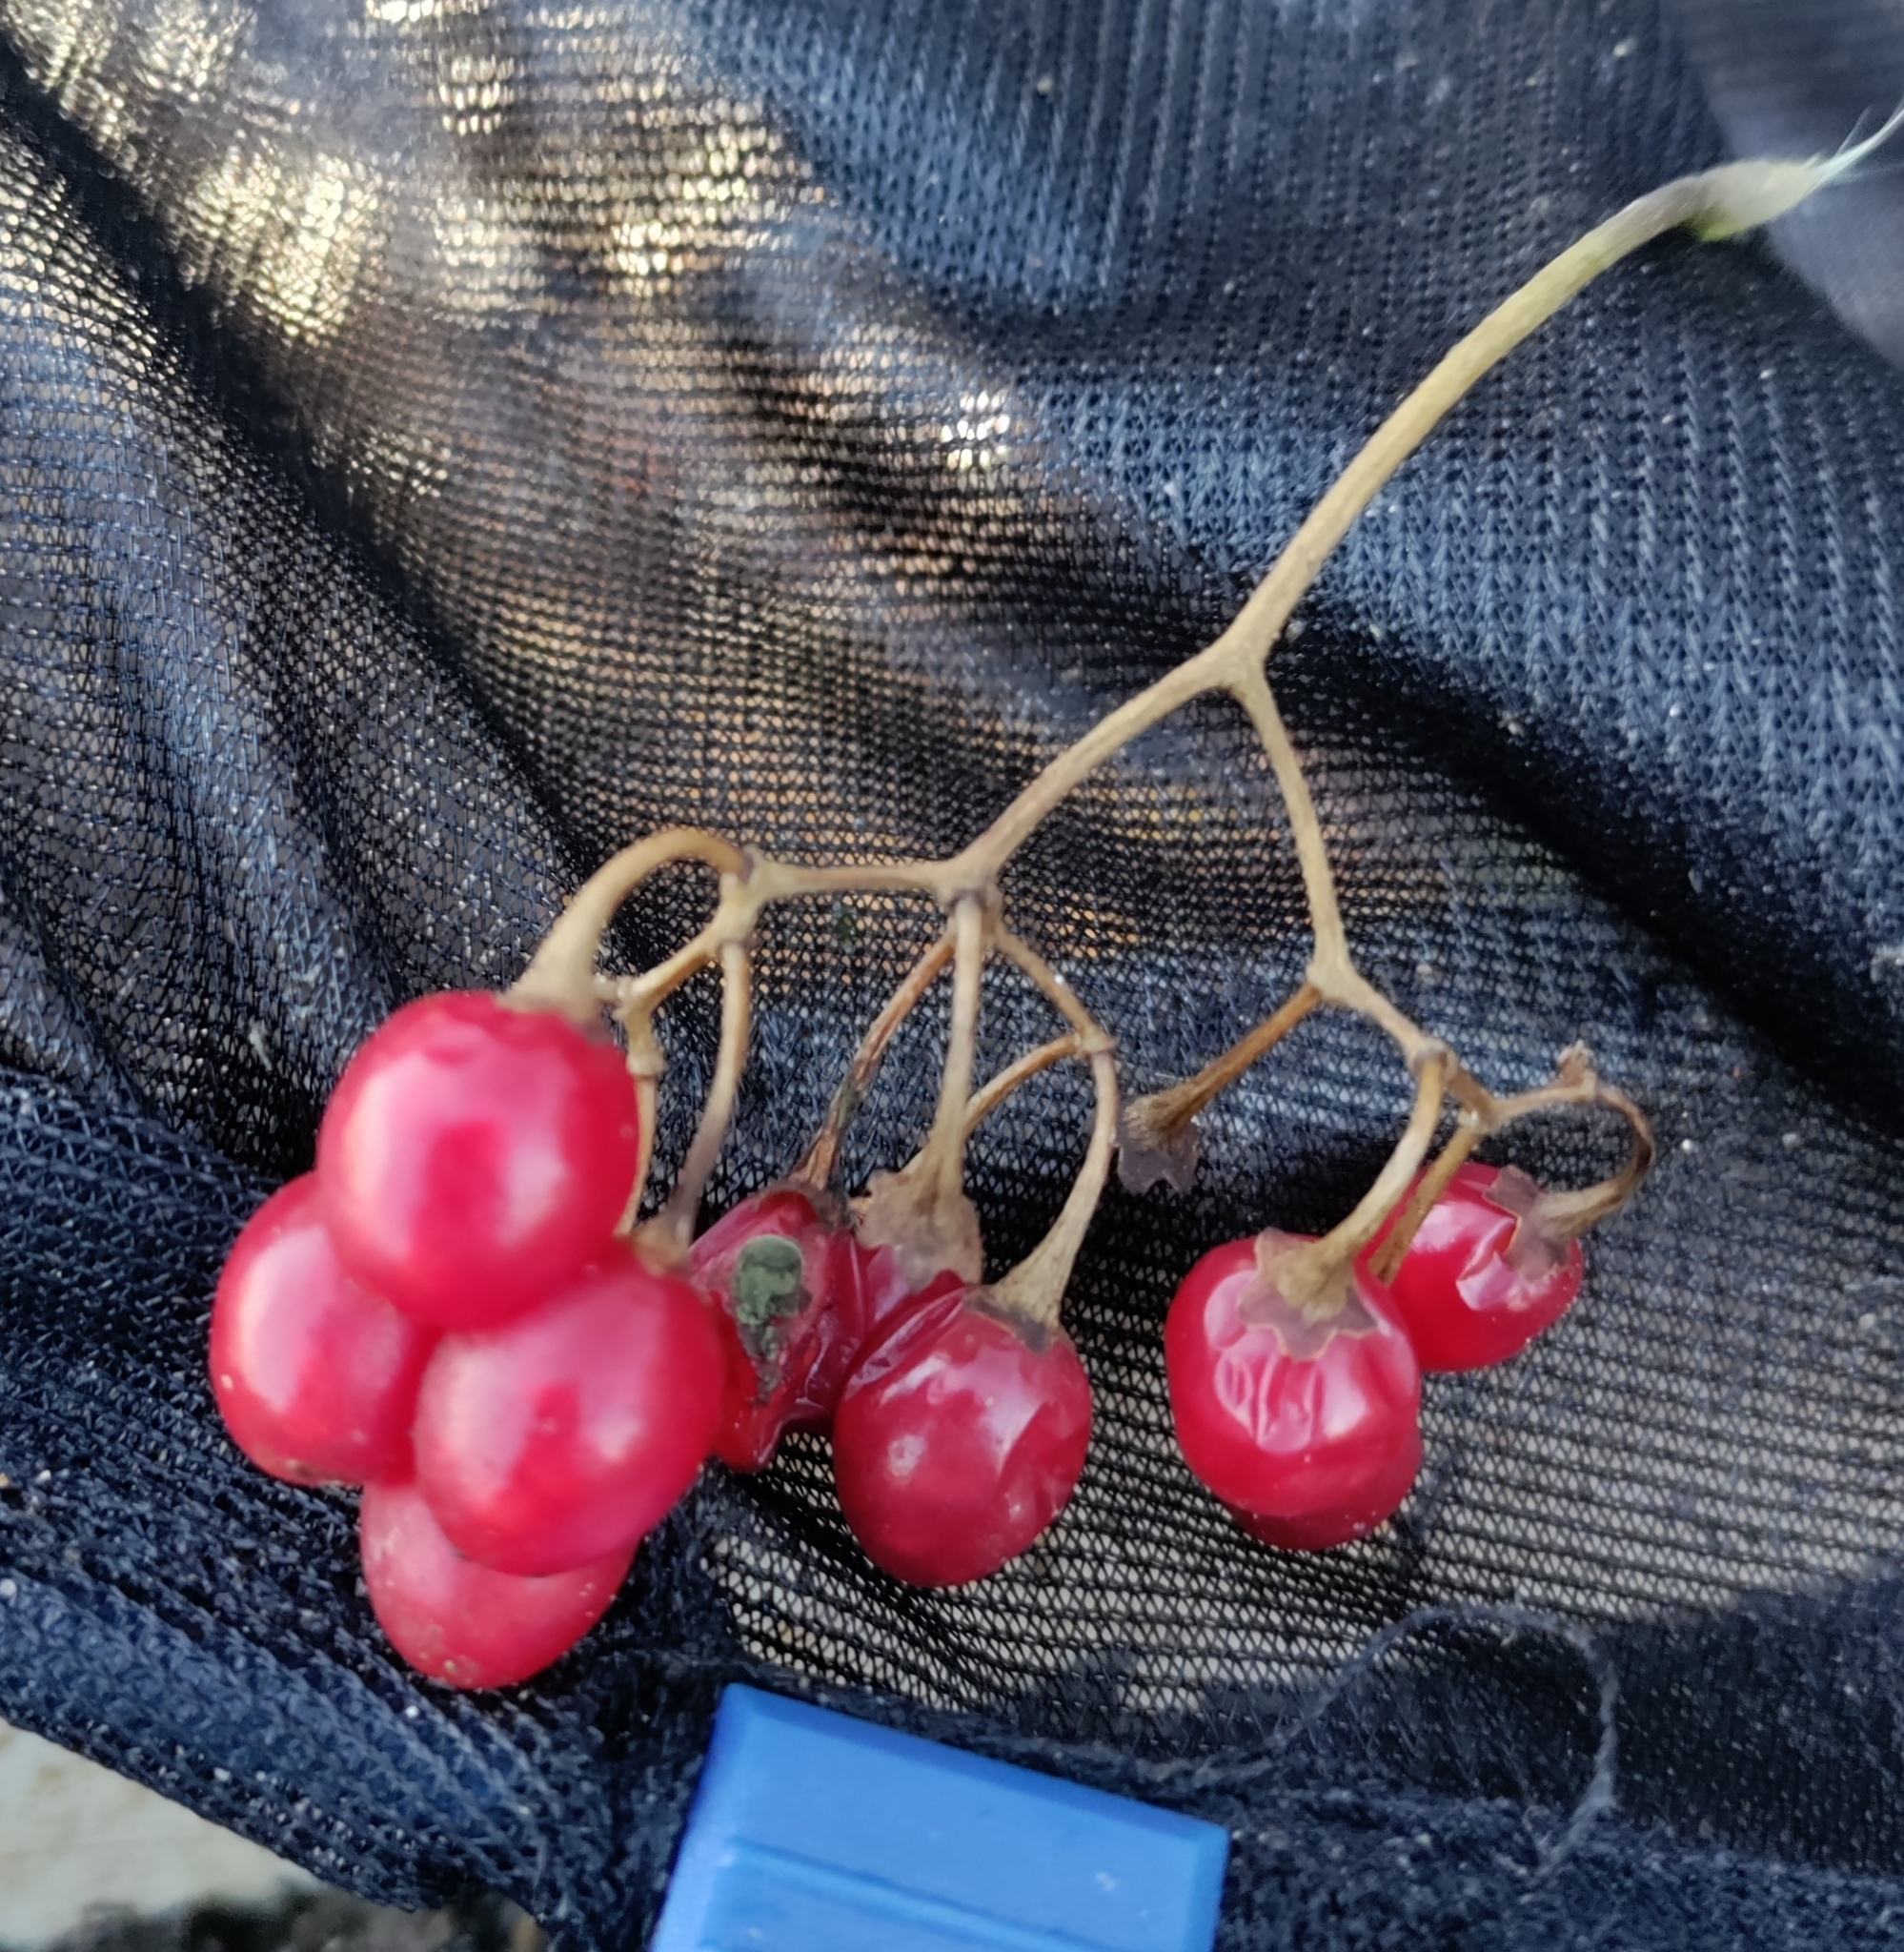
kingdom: Plantae
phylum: Tracheophyta
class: Magnoliopsida
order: Solanales
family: Solanaceae
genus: Solanum
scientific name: Solanum dulcamara
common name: Climbing nightshade
